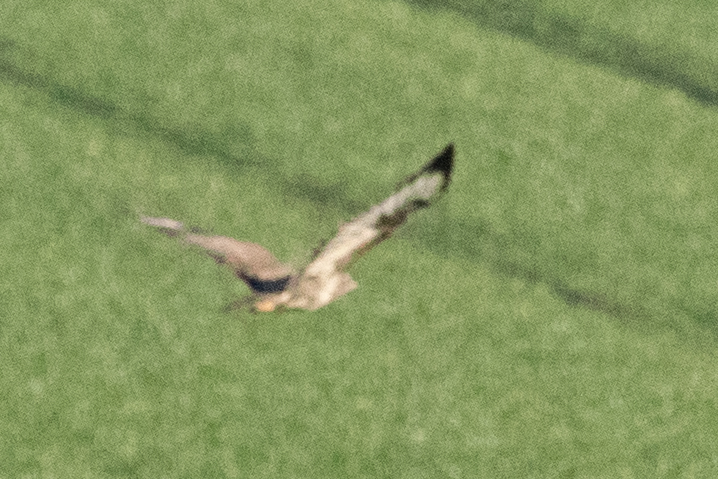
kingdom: Animalia
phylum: Chordata
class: Aves
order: Accipitriformes
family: Accipitridae
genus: Buteo
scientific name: Buteo buteo
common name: Common buzzard
